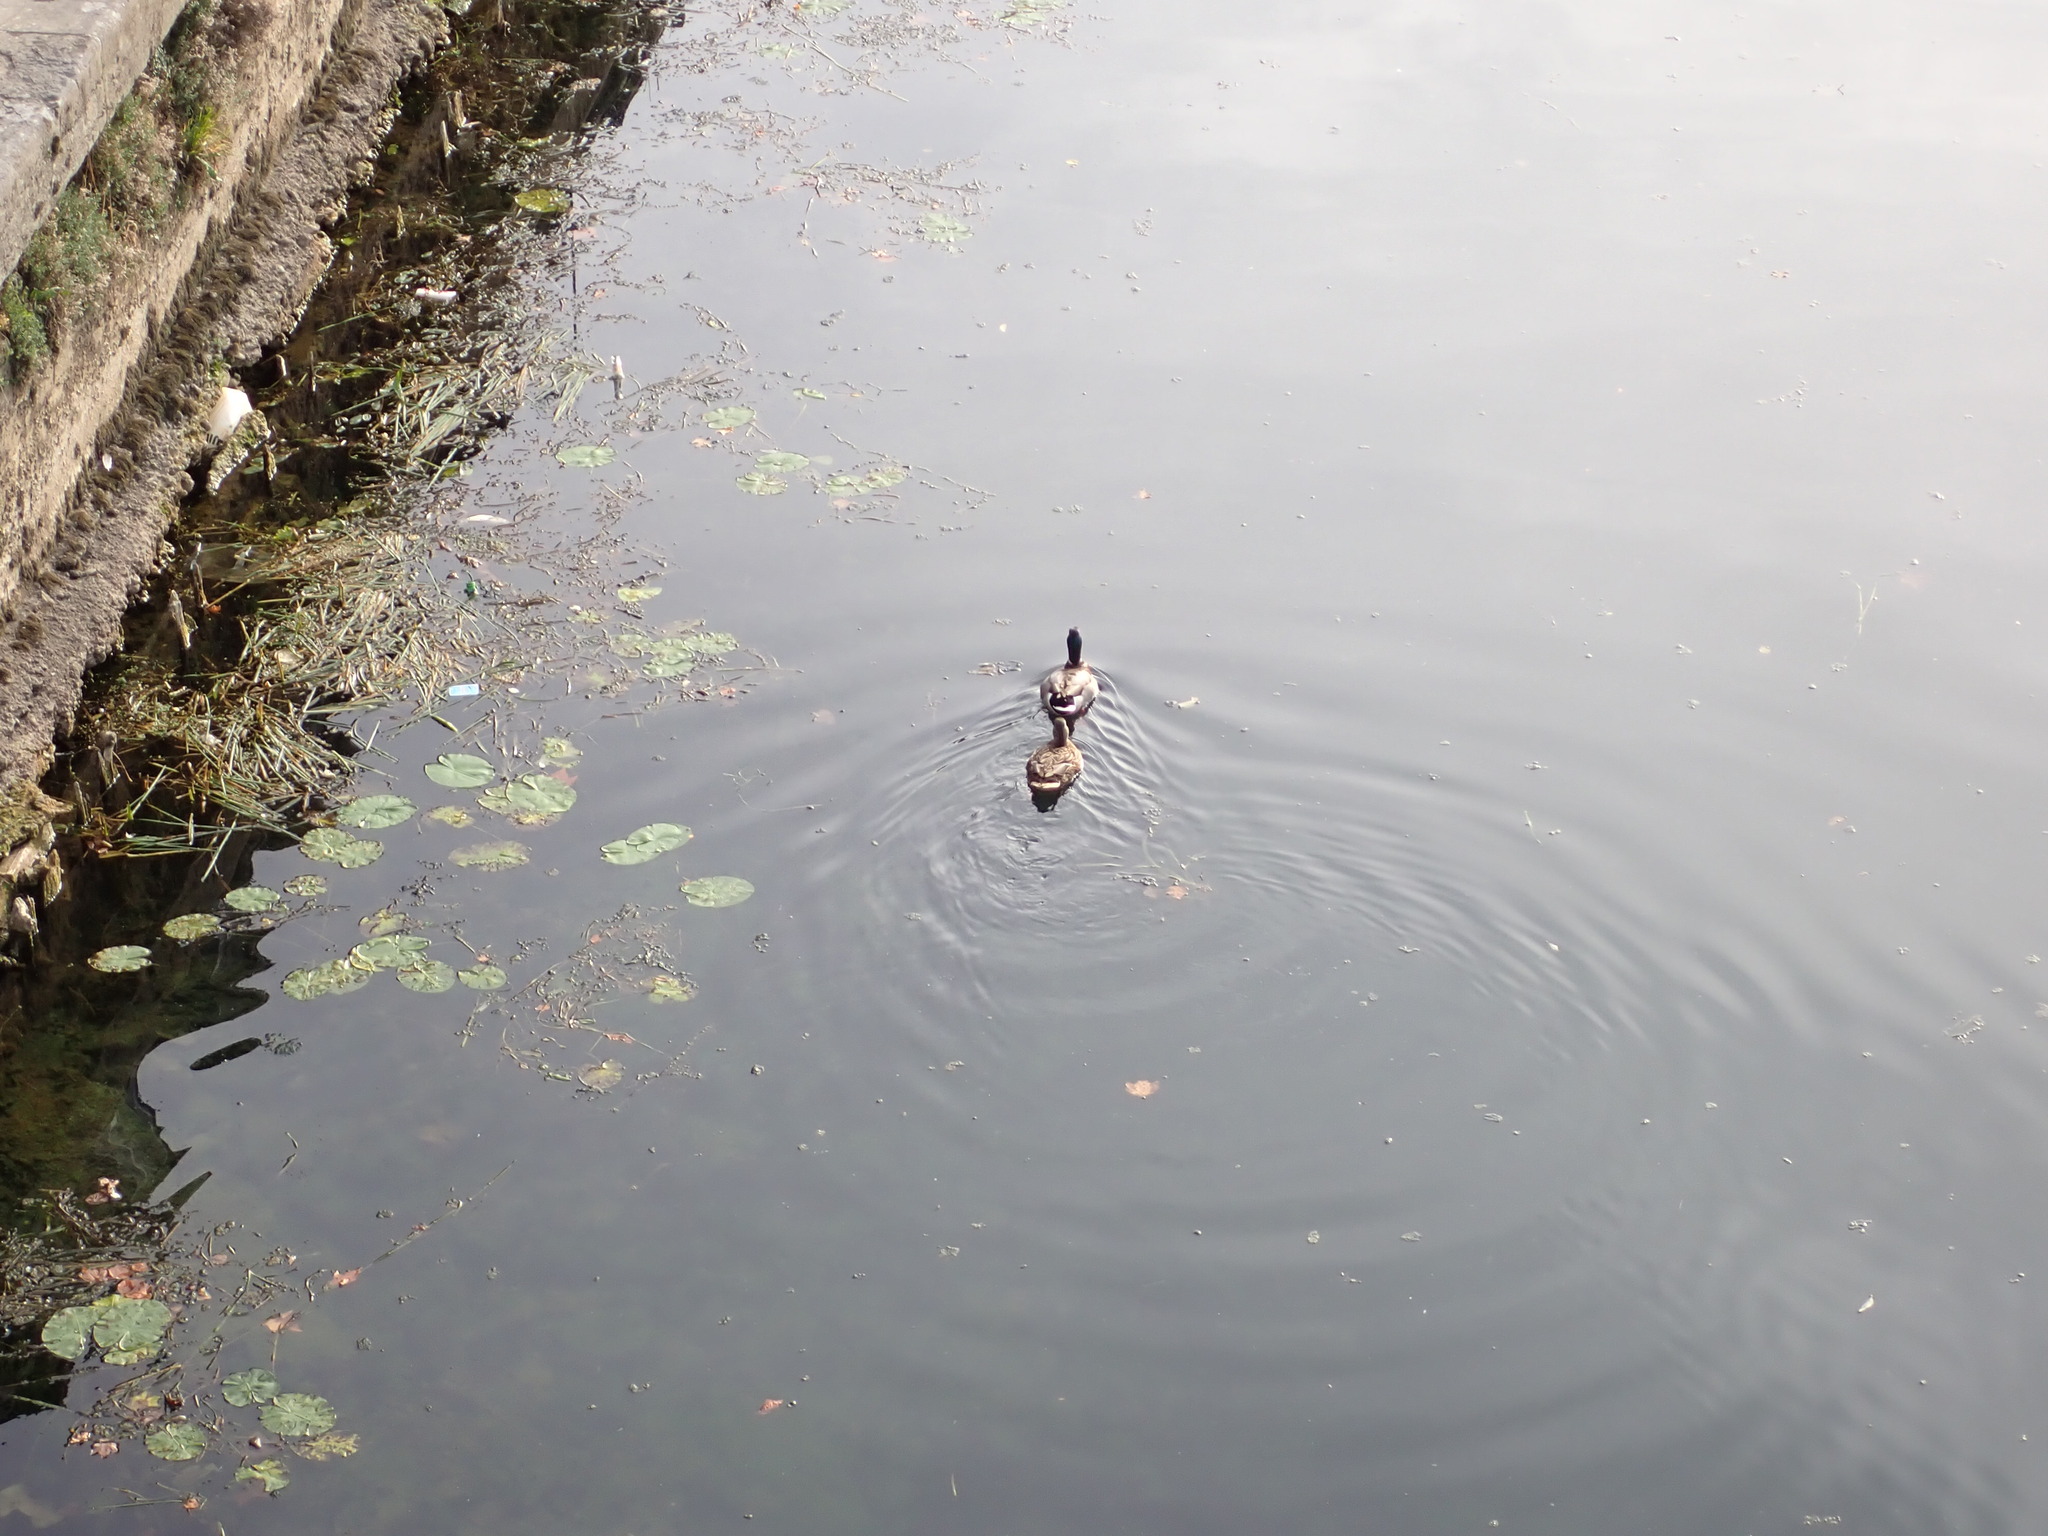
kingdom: Animalia
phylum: Chordata
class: Aves
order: Anseriformes
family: Anatidae
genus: Anas
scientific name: Anas platyrhynchos
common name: Mallard
